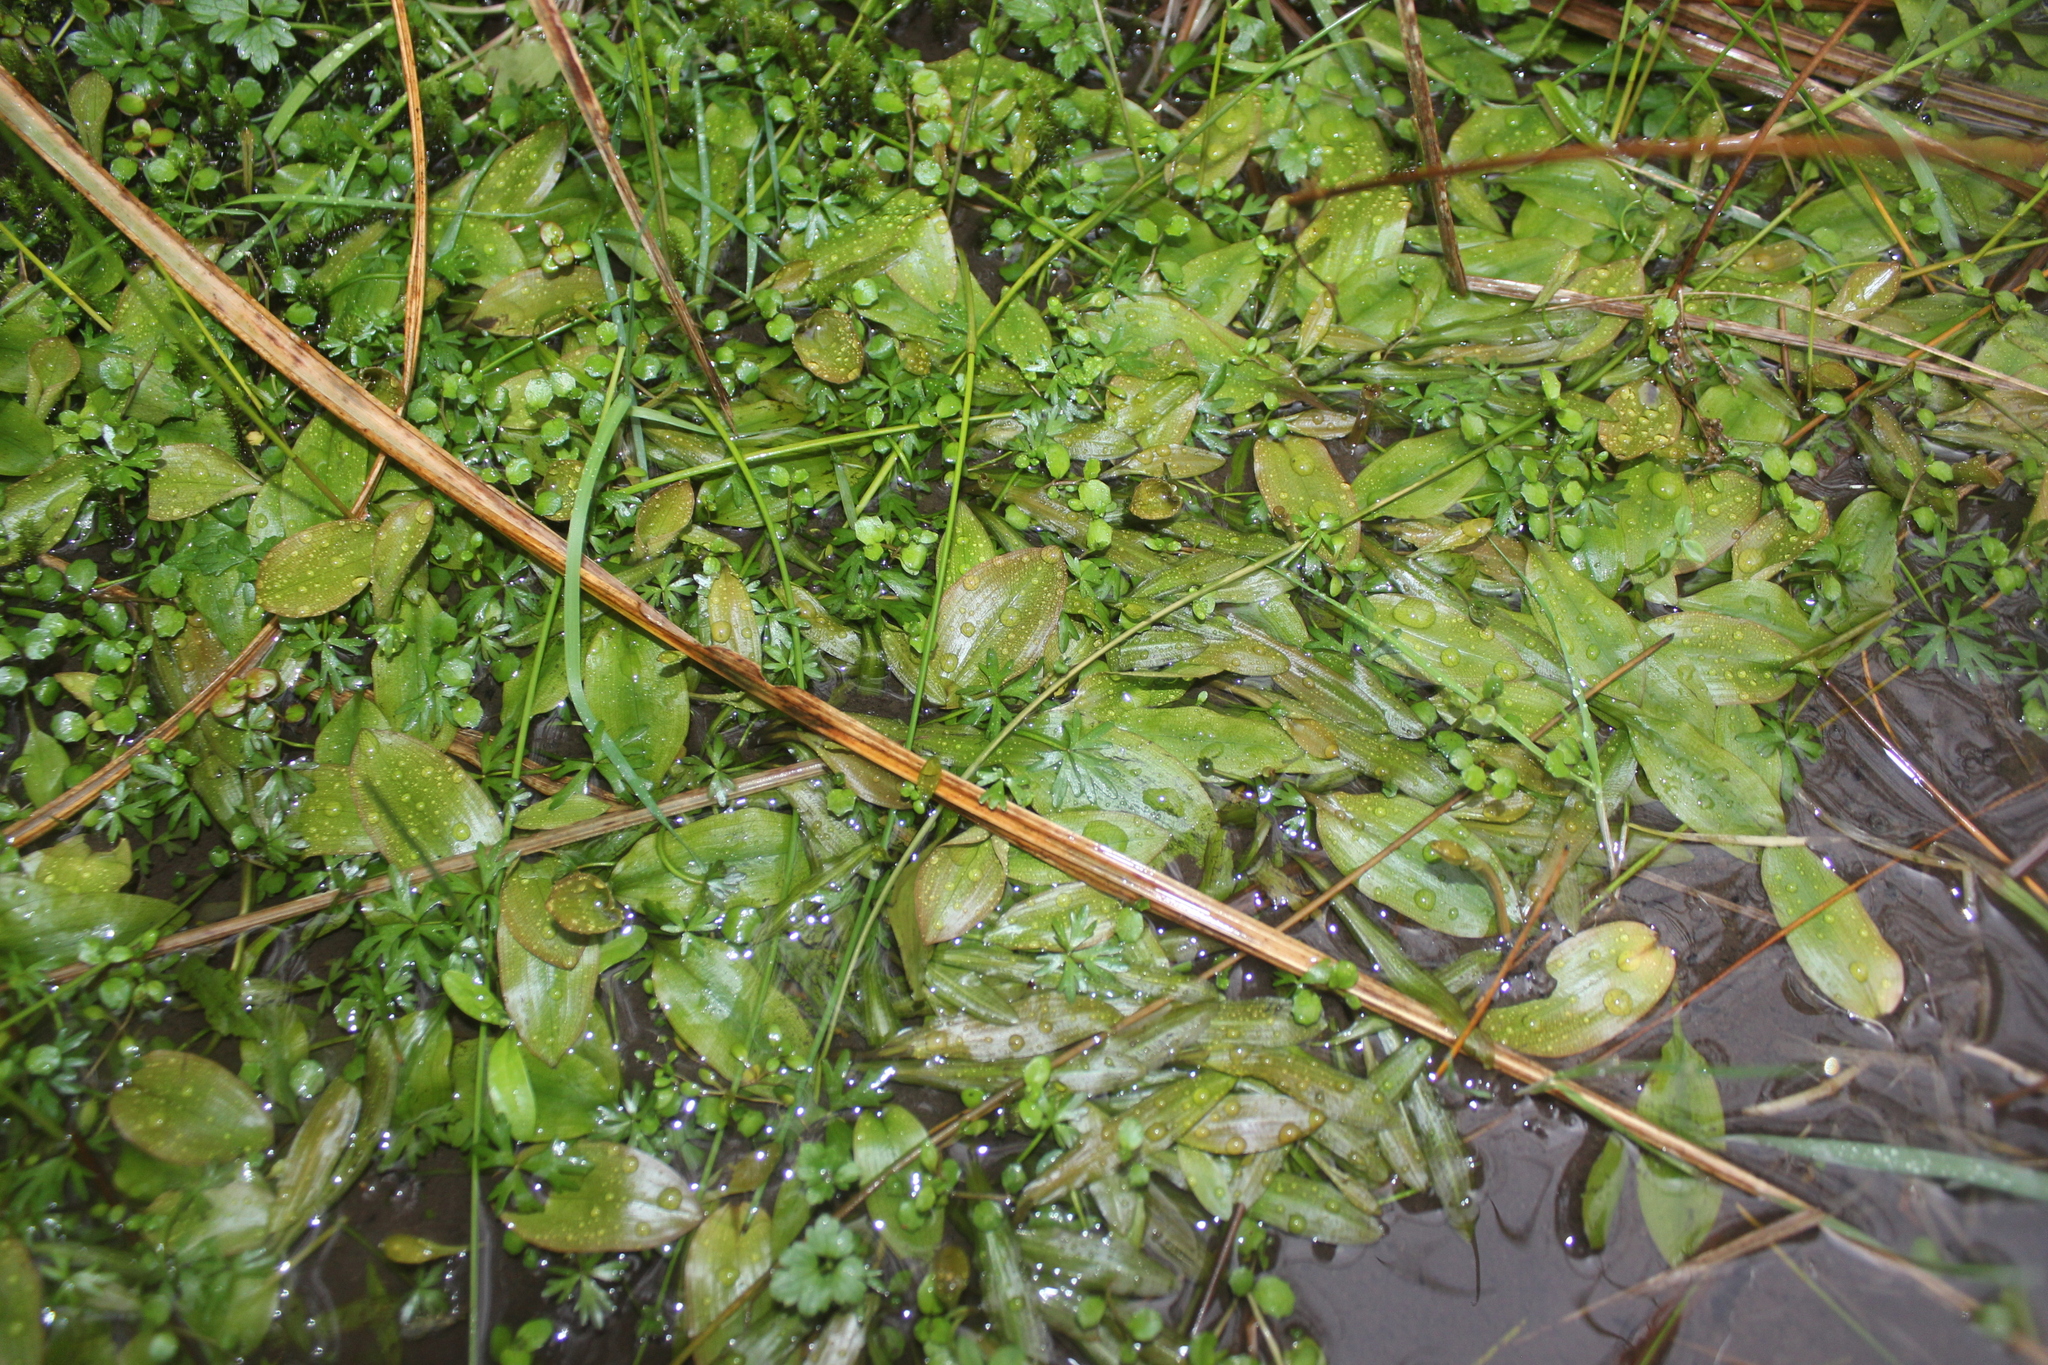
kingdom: Plantae
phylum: Tracheophyta
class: Liliopsida
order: Alismatales
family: Potamogetonaceae
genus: Potamogeton
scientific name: Potamogeton cheesemanii
